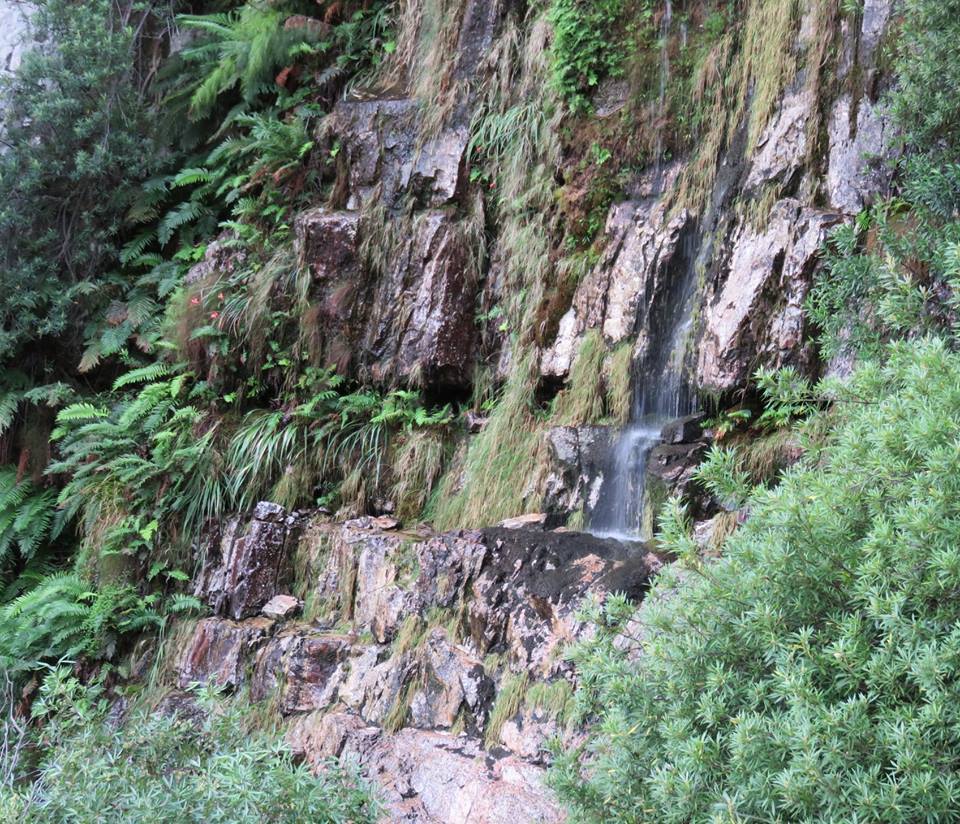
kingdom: Plantae
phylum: Tracheophyta
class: Liliopsida
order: Asparagales
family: Iridaceae
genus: Gladiolus
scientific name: Gladiolus cardinalis
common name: New year-lily
